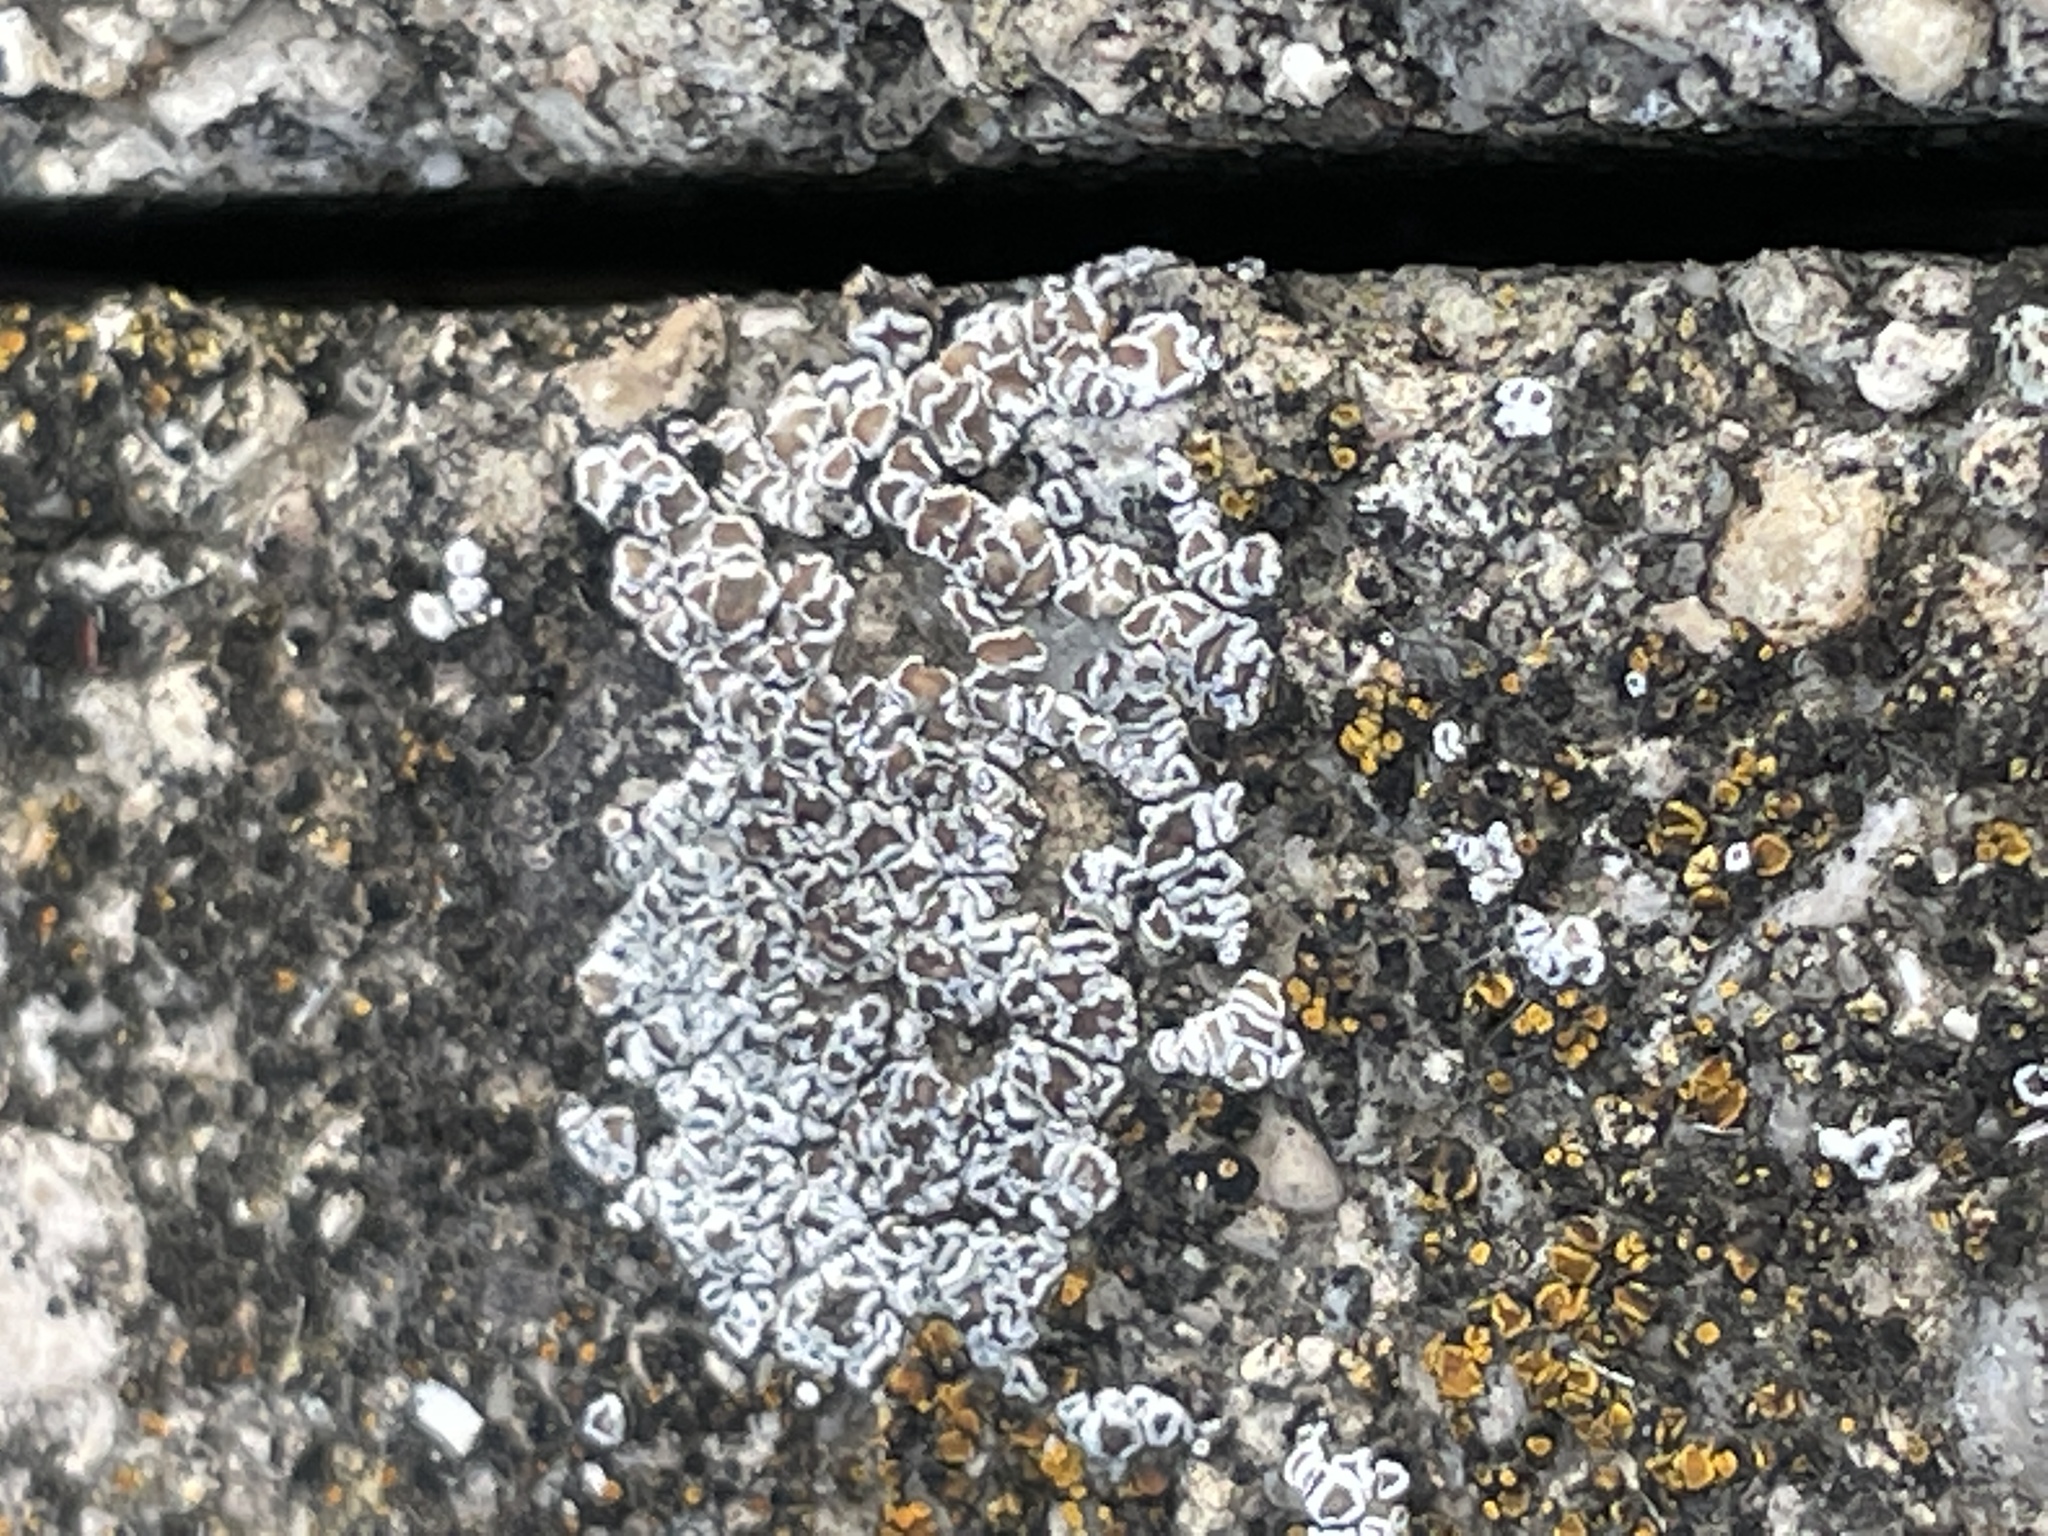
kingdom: Fungi
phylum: Ascomycota
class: Lecanoromycetes
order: Lecanorales
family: Lecanoraceae
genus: Polyozosia
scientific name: Polyozosia dispersa
